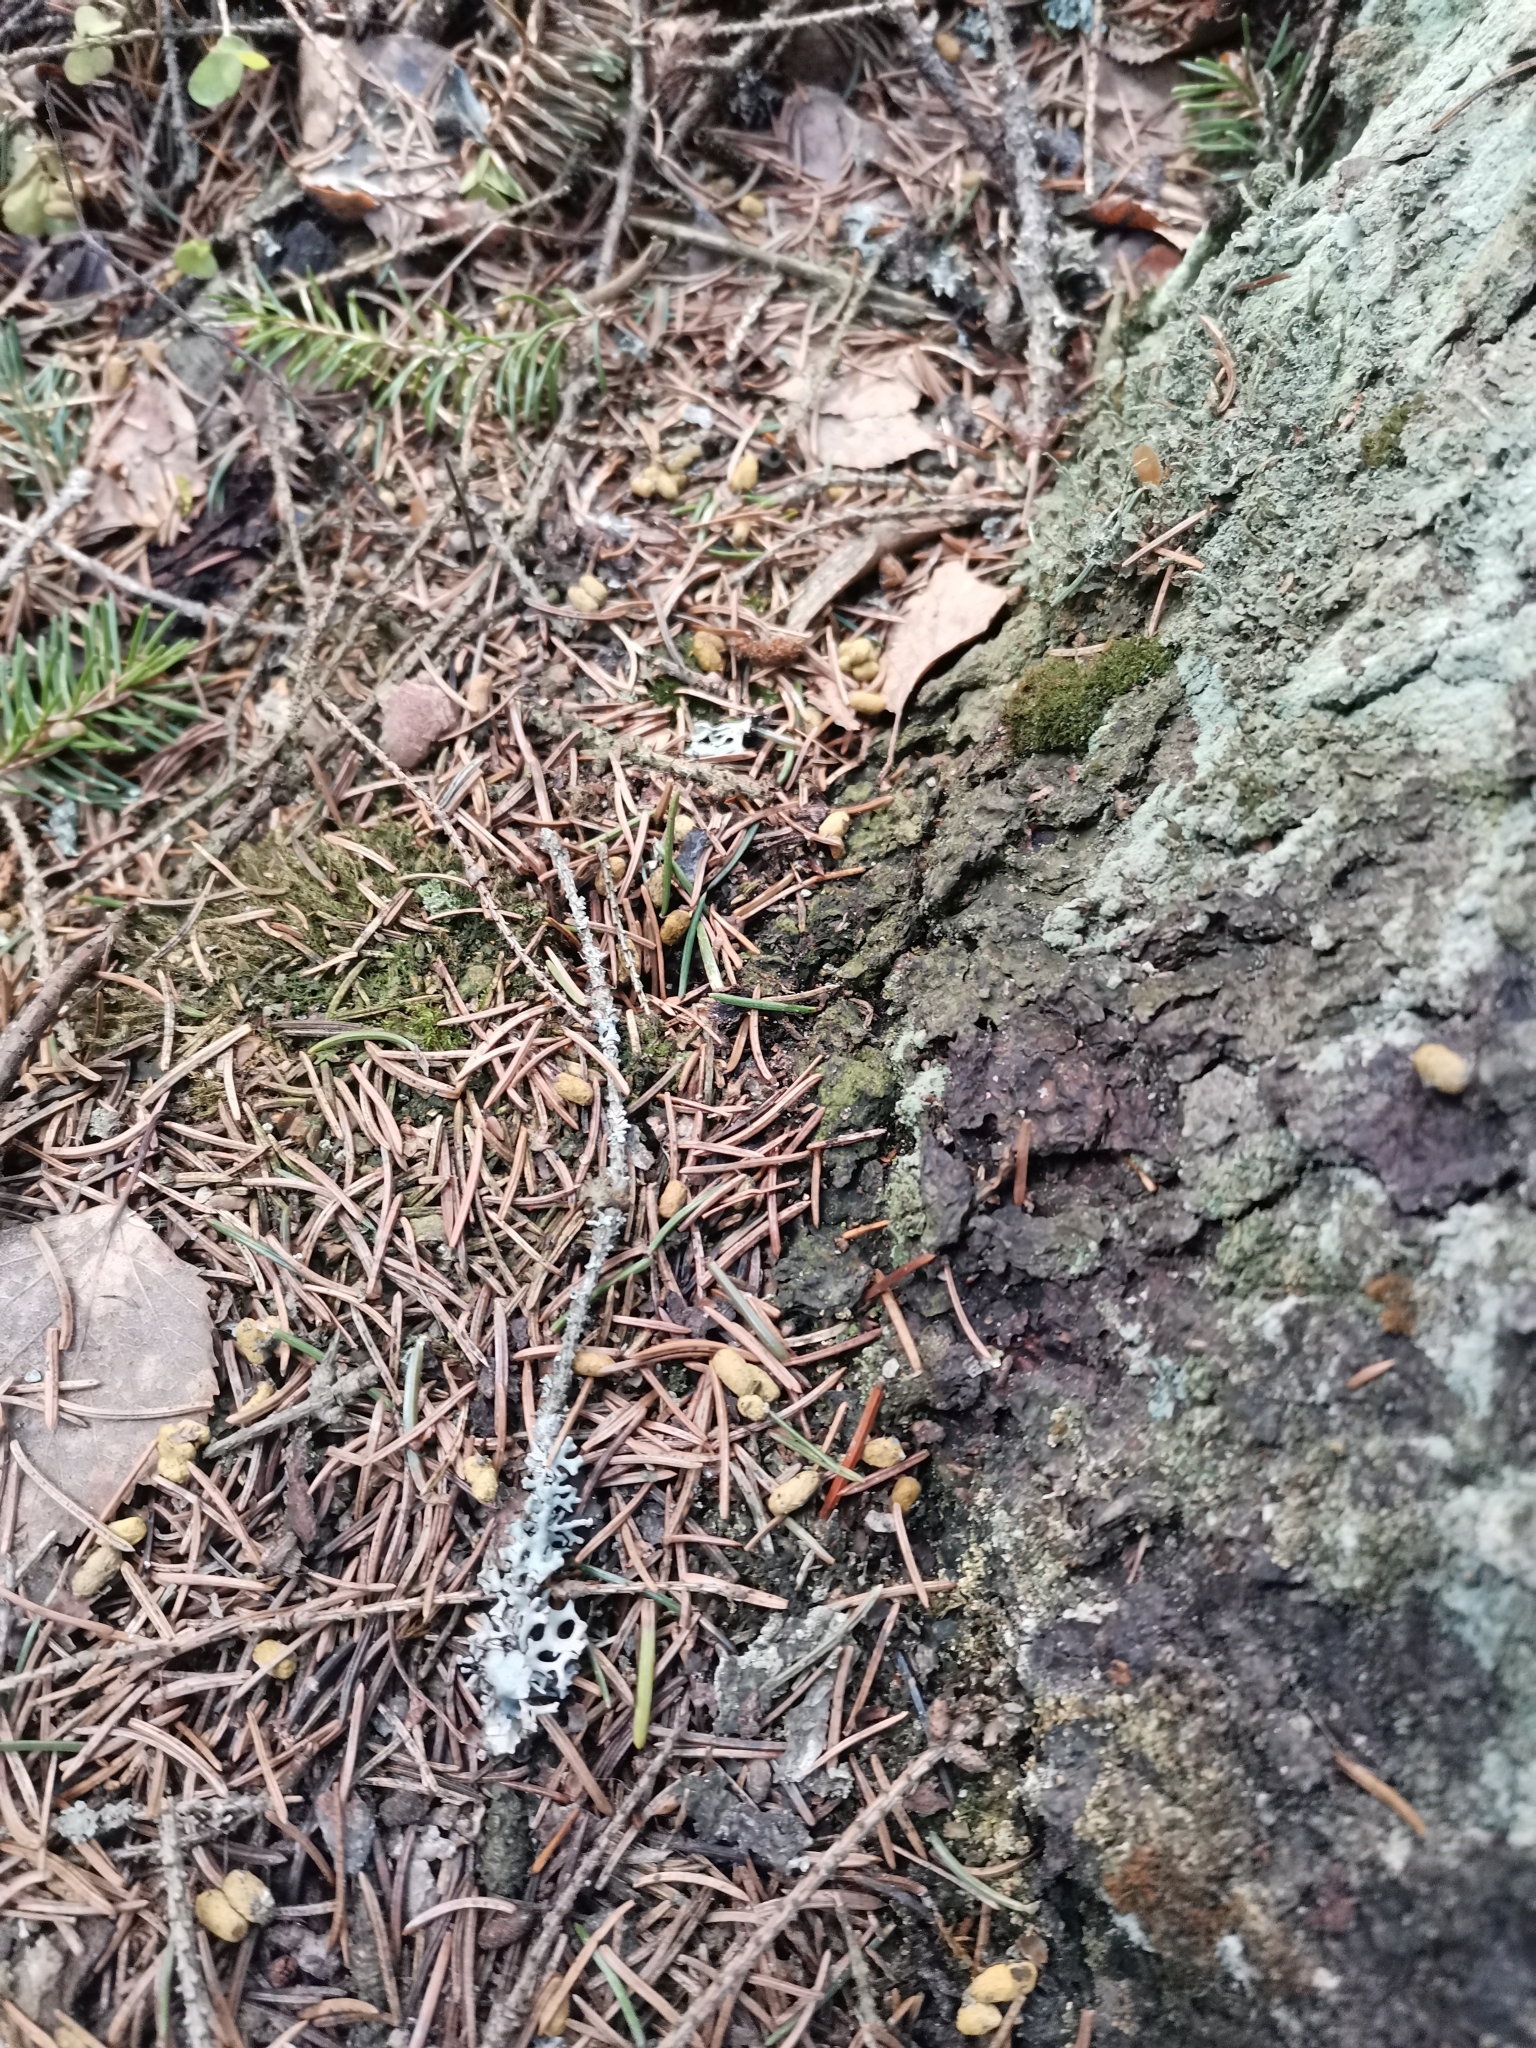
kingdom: Animalia
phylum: Chordata
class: Mammalia
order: Rodentia
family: Sciuridae
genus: Pteromys
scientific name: Pteromys volans
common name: Siberian flying squirrel
